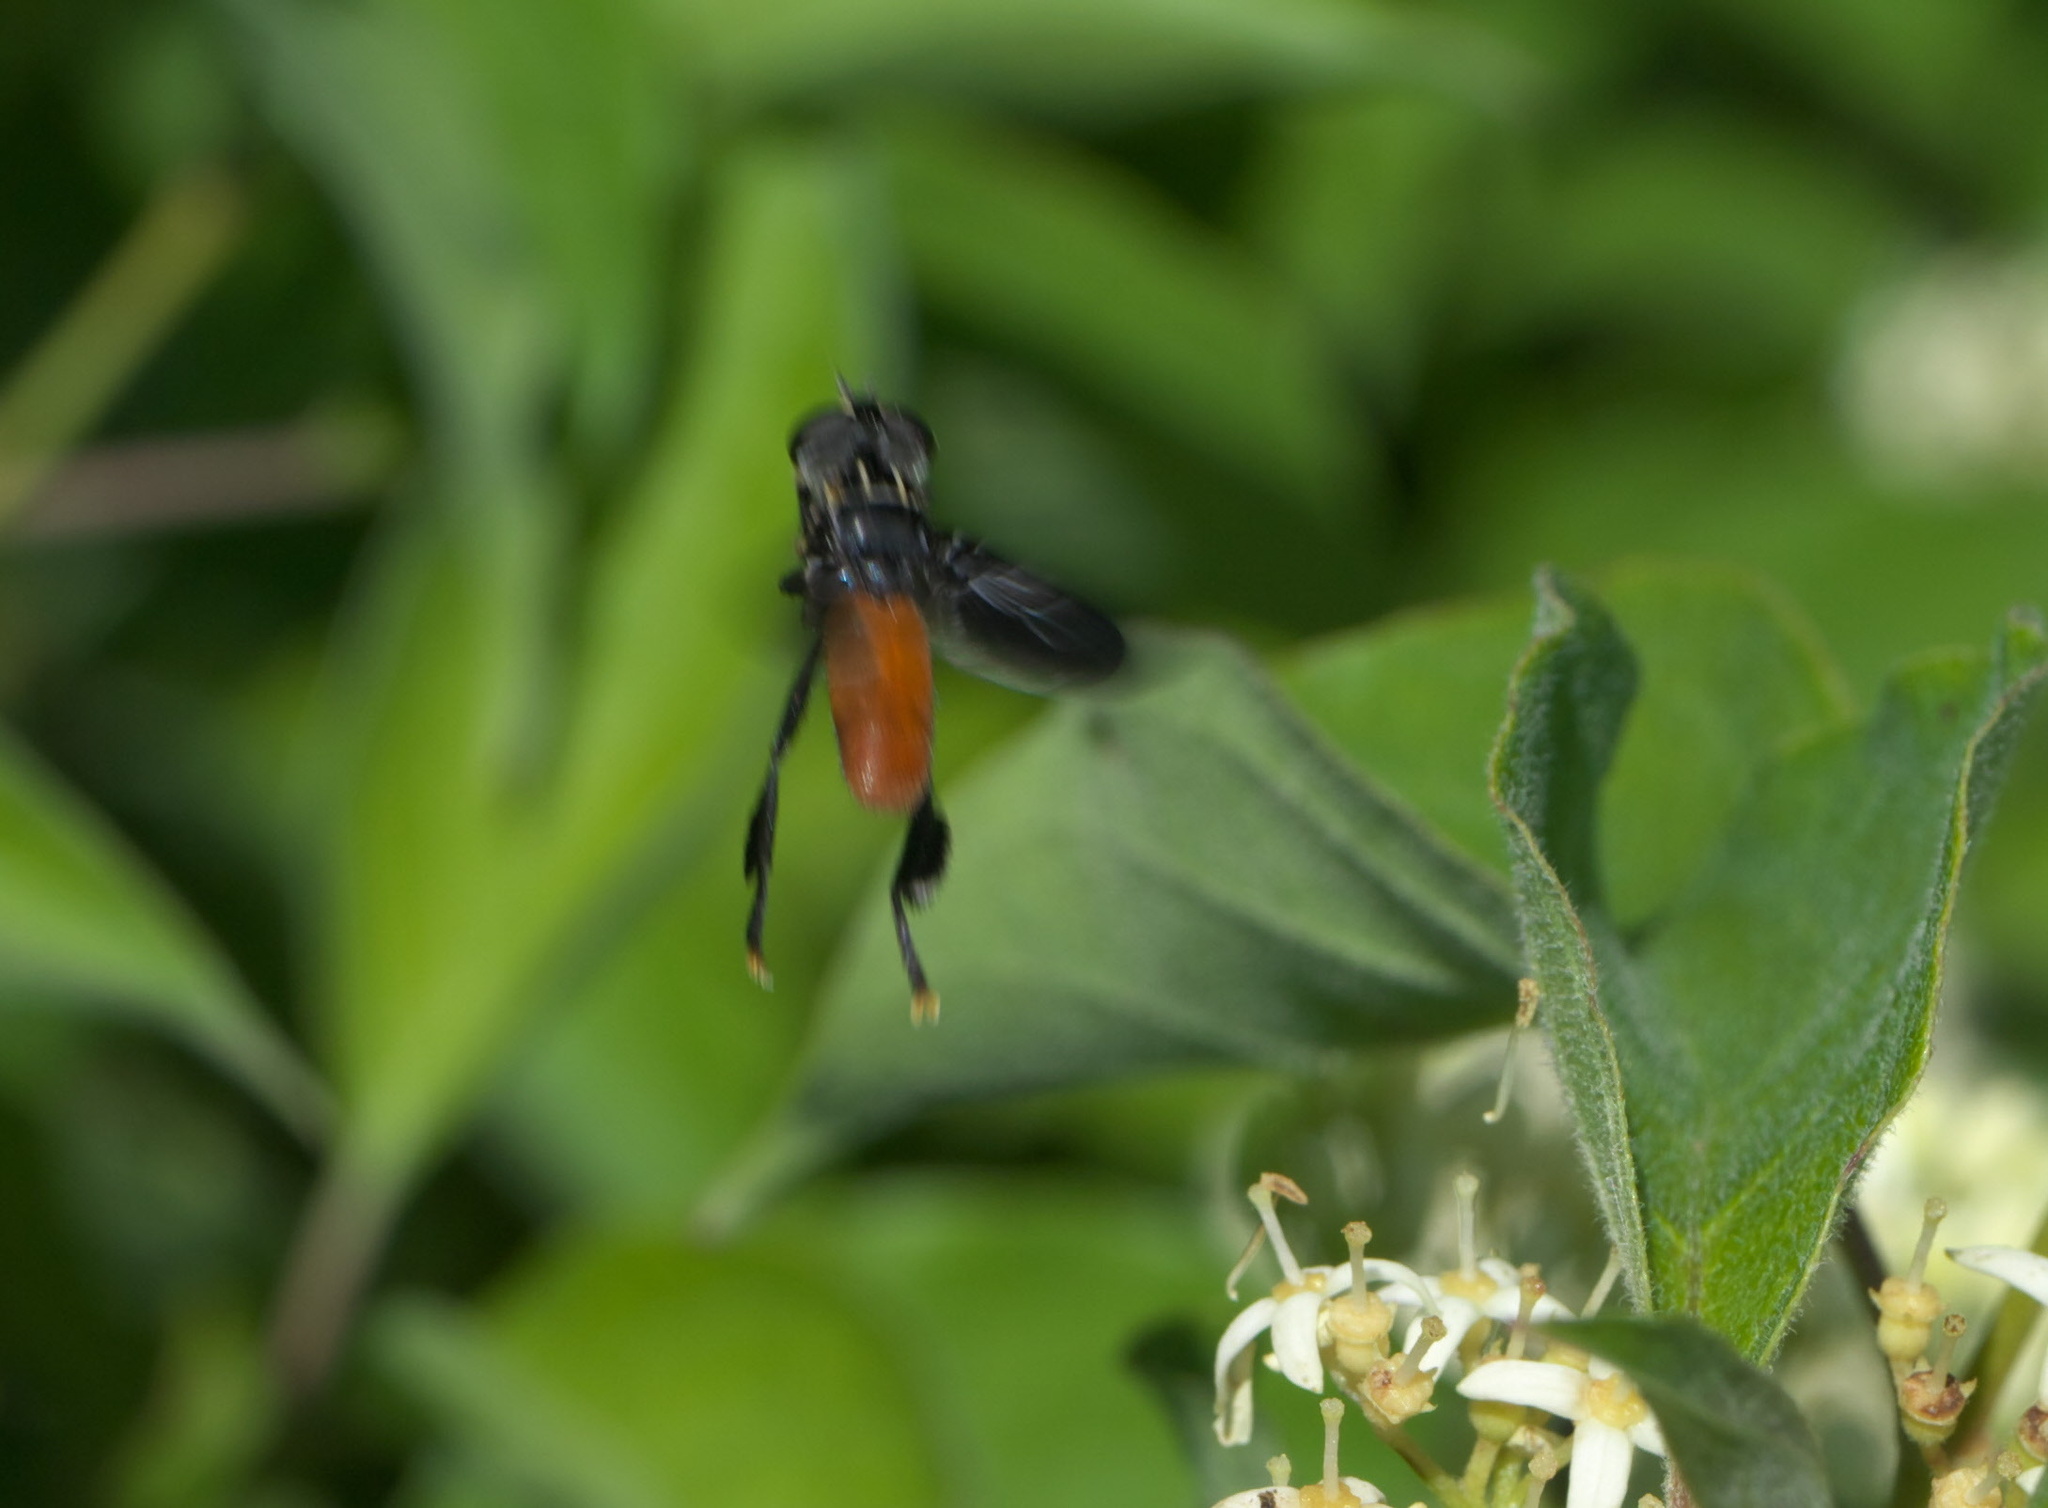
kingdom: Animalia
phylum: Arthropoda
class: Insecta
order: Diptera
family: Tachinidae
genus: Trichopoda
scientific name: Trichopoda pennipes
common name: Tachinid fly
